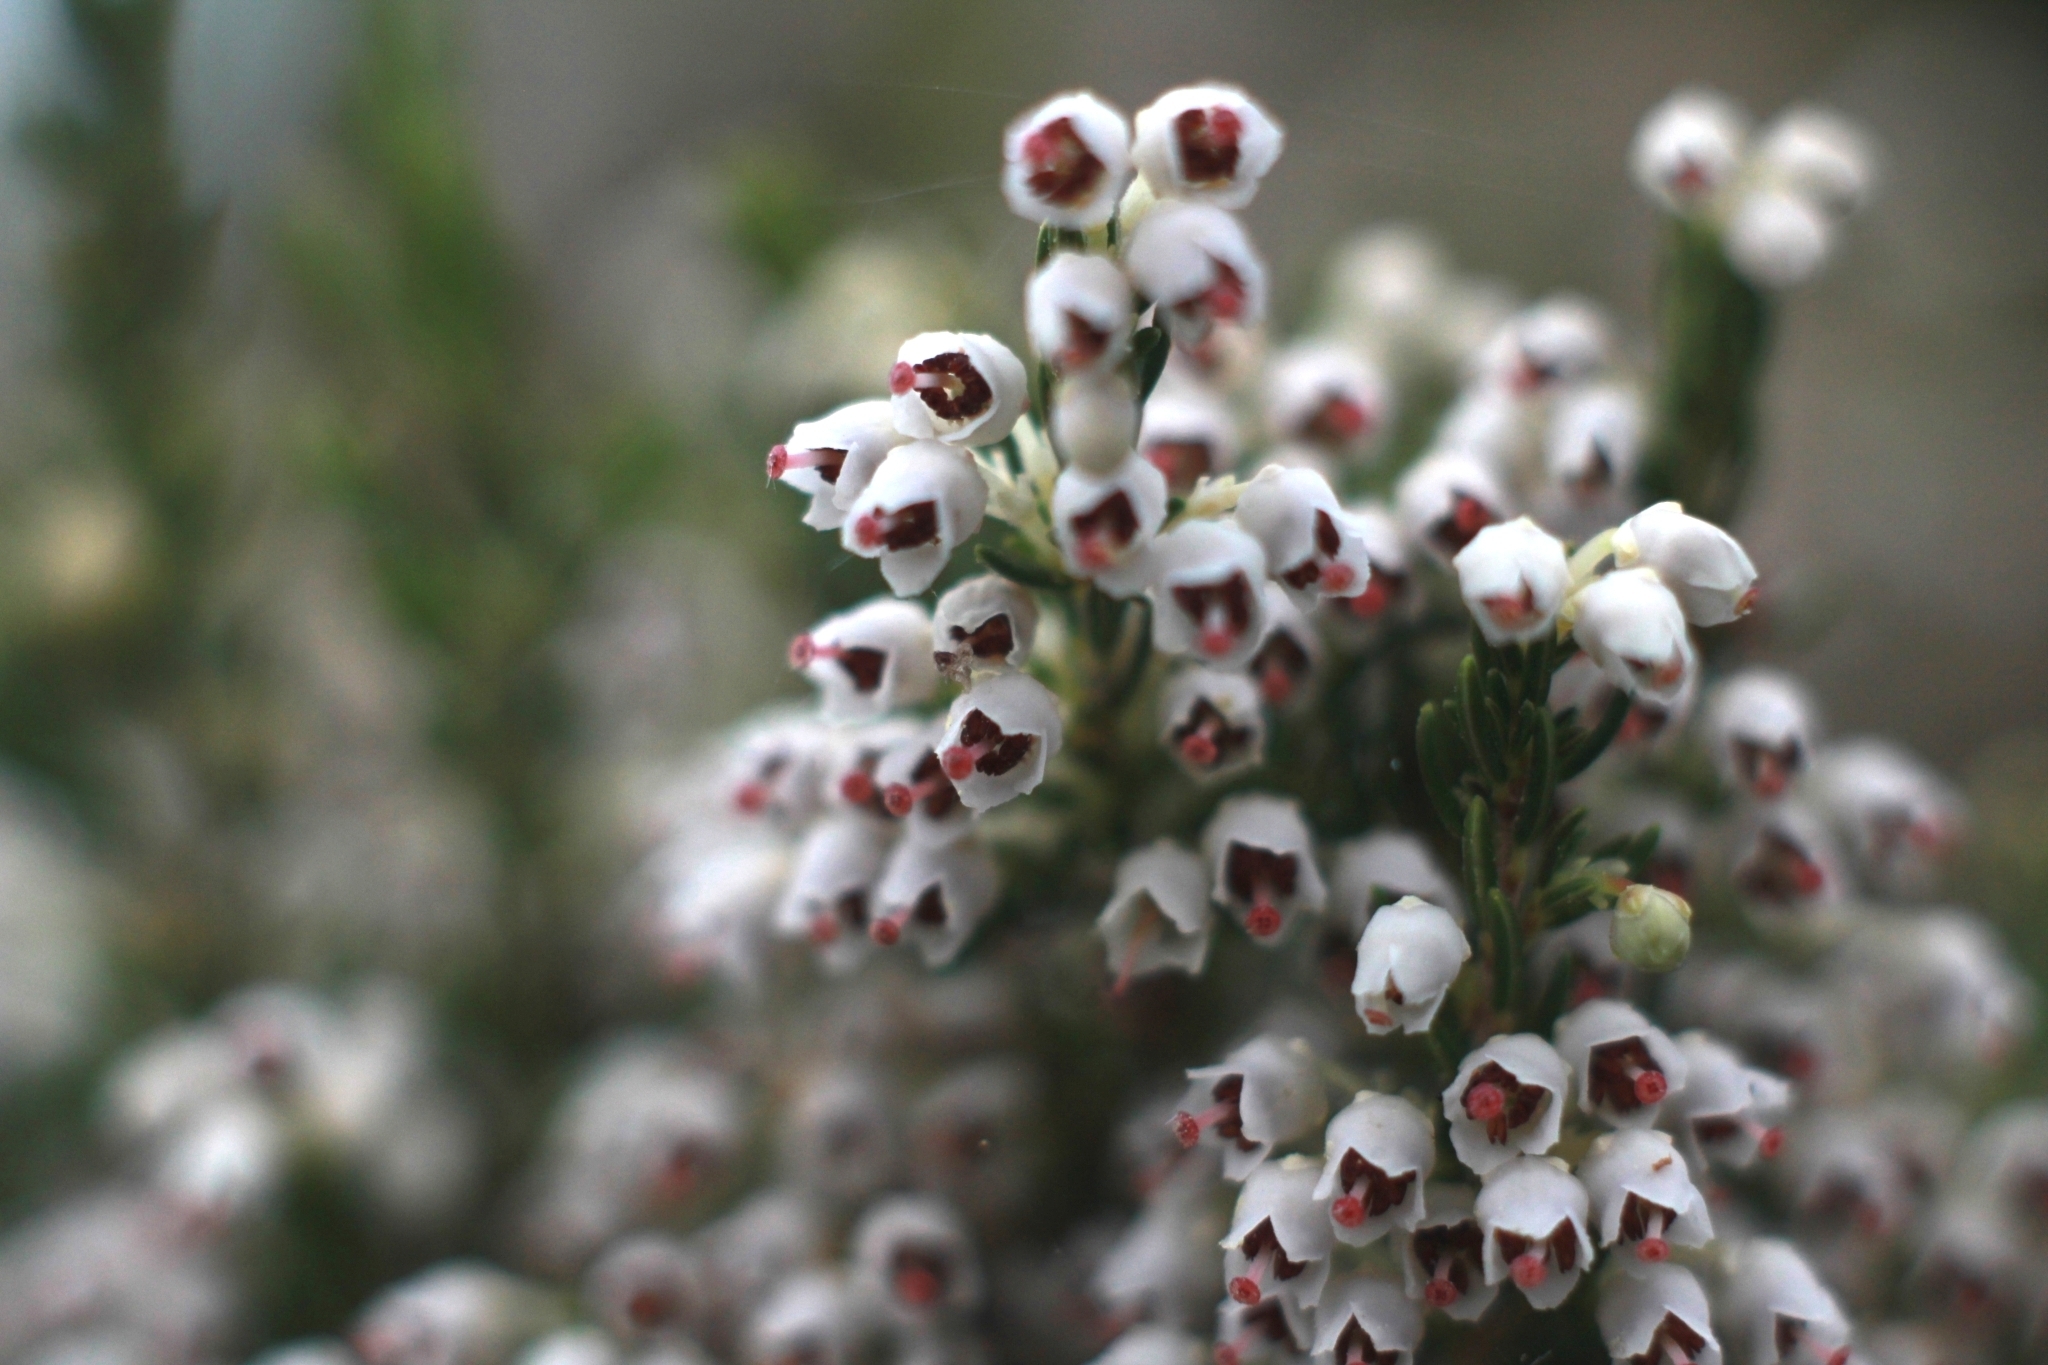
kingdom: Plantae
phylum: Tracheophyta
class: Magnoliopsida
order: Ericales
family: Ericaceae
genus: Erica
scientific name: Erica arborea
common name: Tree heath
